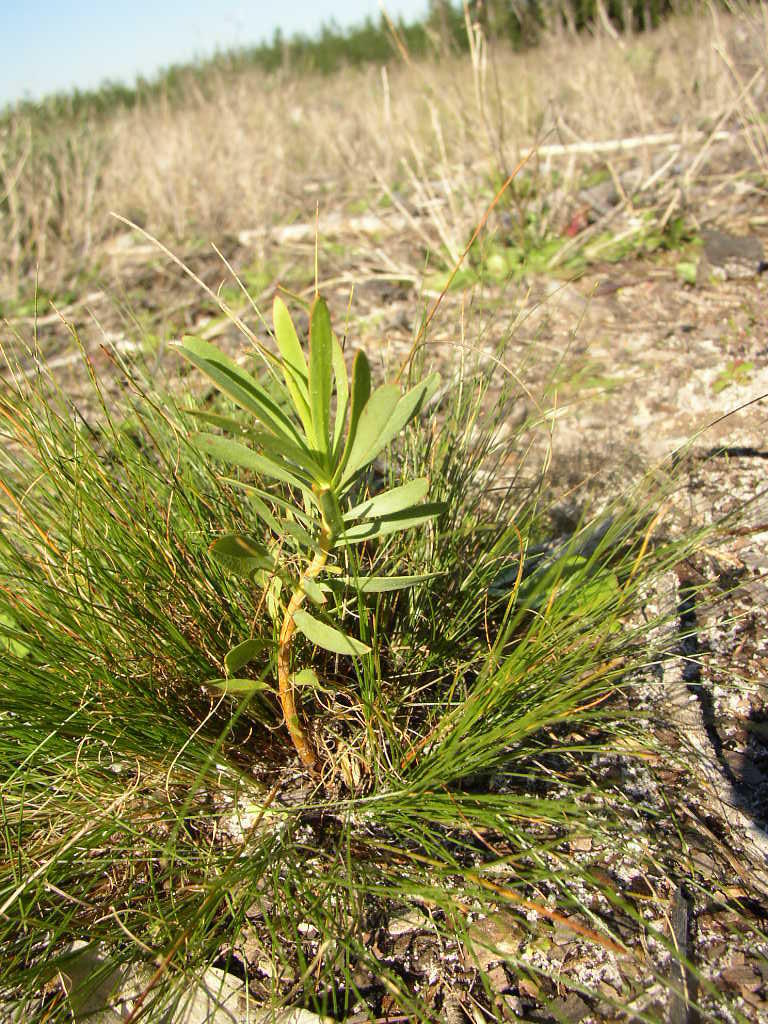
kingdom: Plantae
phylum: Tracheophyta
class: Magnoliopsida
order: Proteales
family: Proteaceae
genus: Protea
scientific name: Protea repens
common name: Sugarbush
